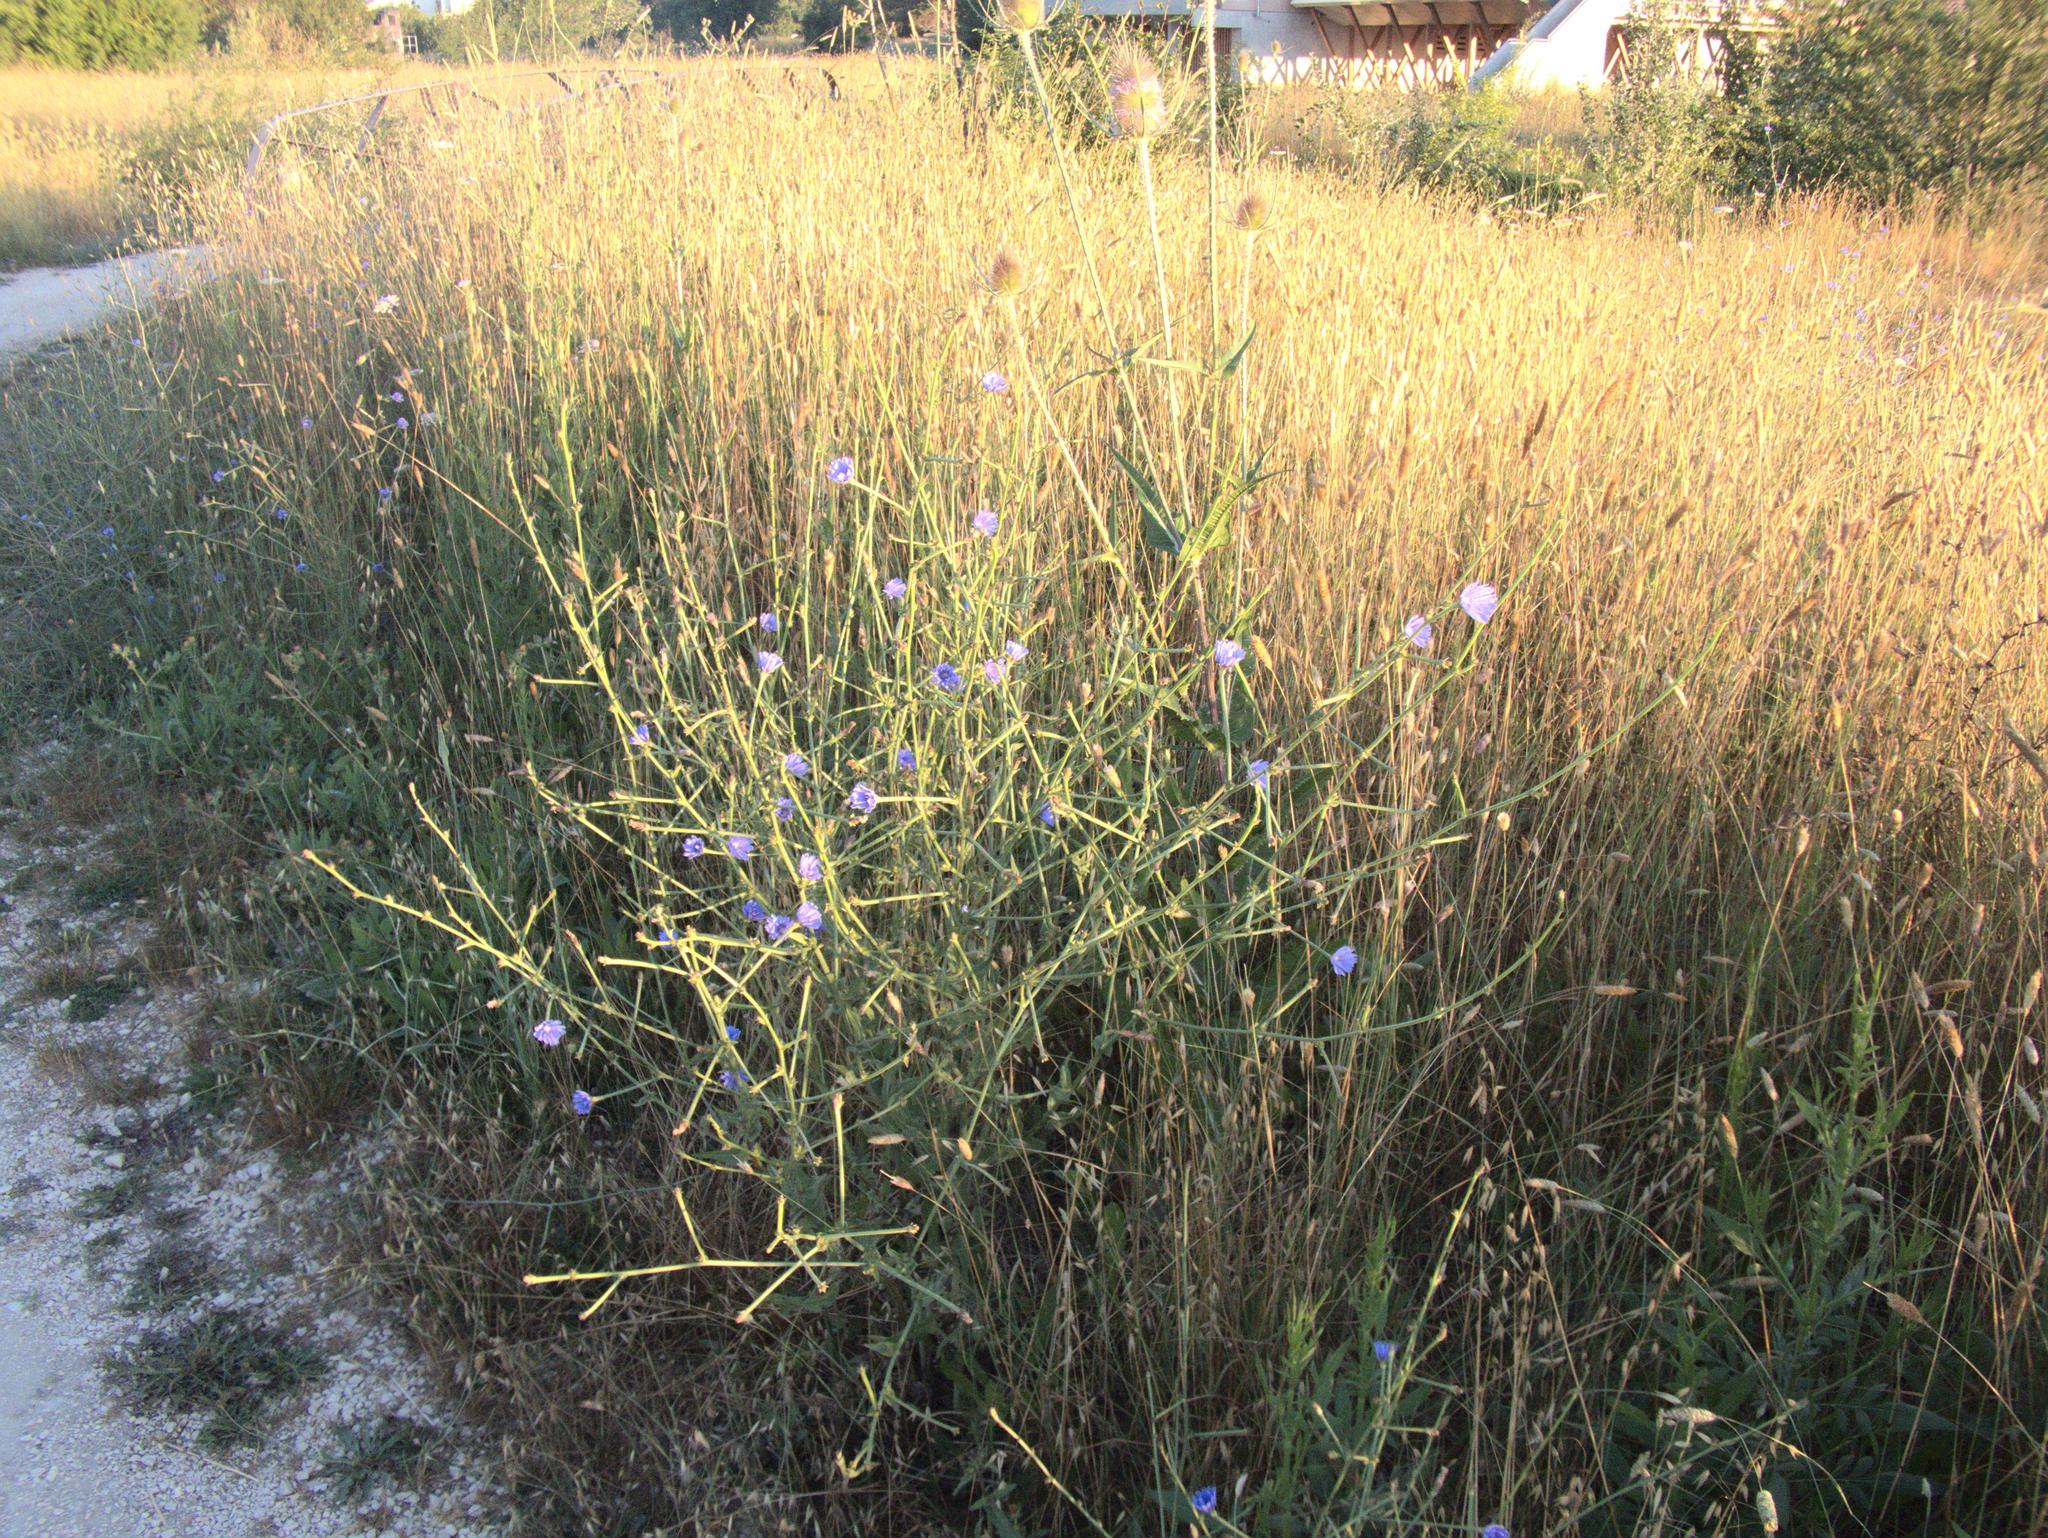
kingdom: Plantae
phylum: Tracheophyta
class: Magnoliopsida
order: Asterales
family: Asteraceae
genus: Cichorium
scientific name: Cichorium intybus
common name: Chicory
